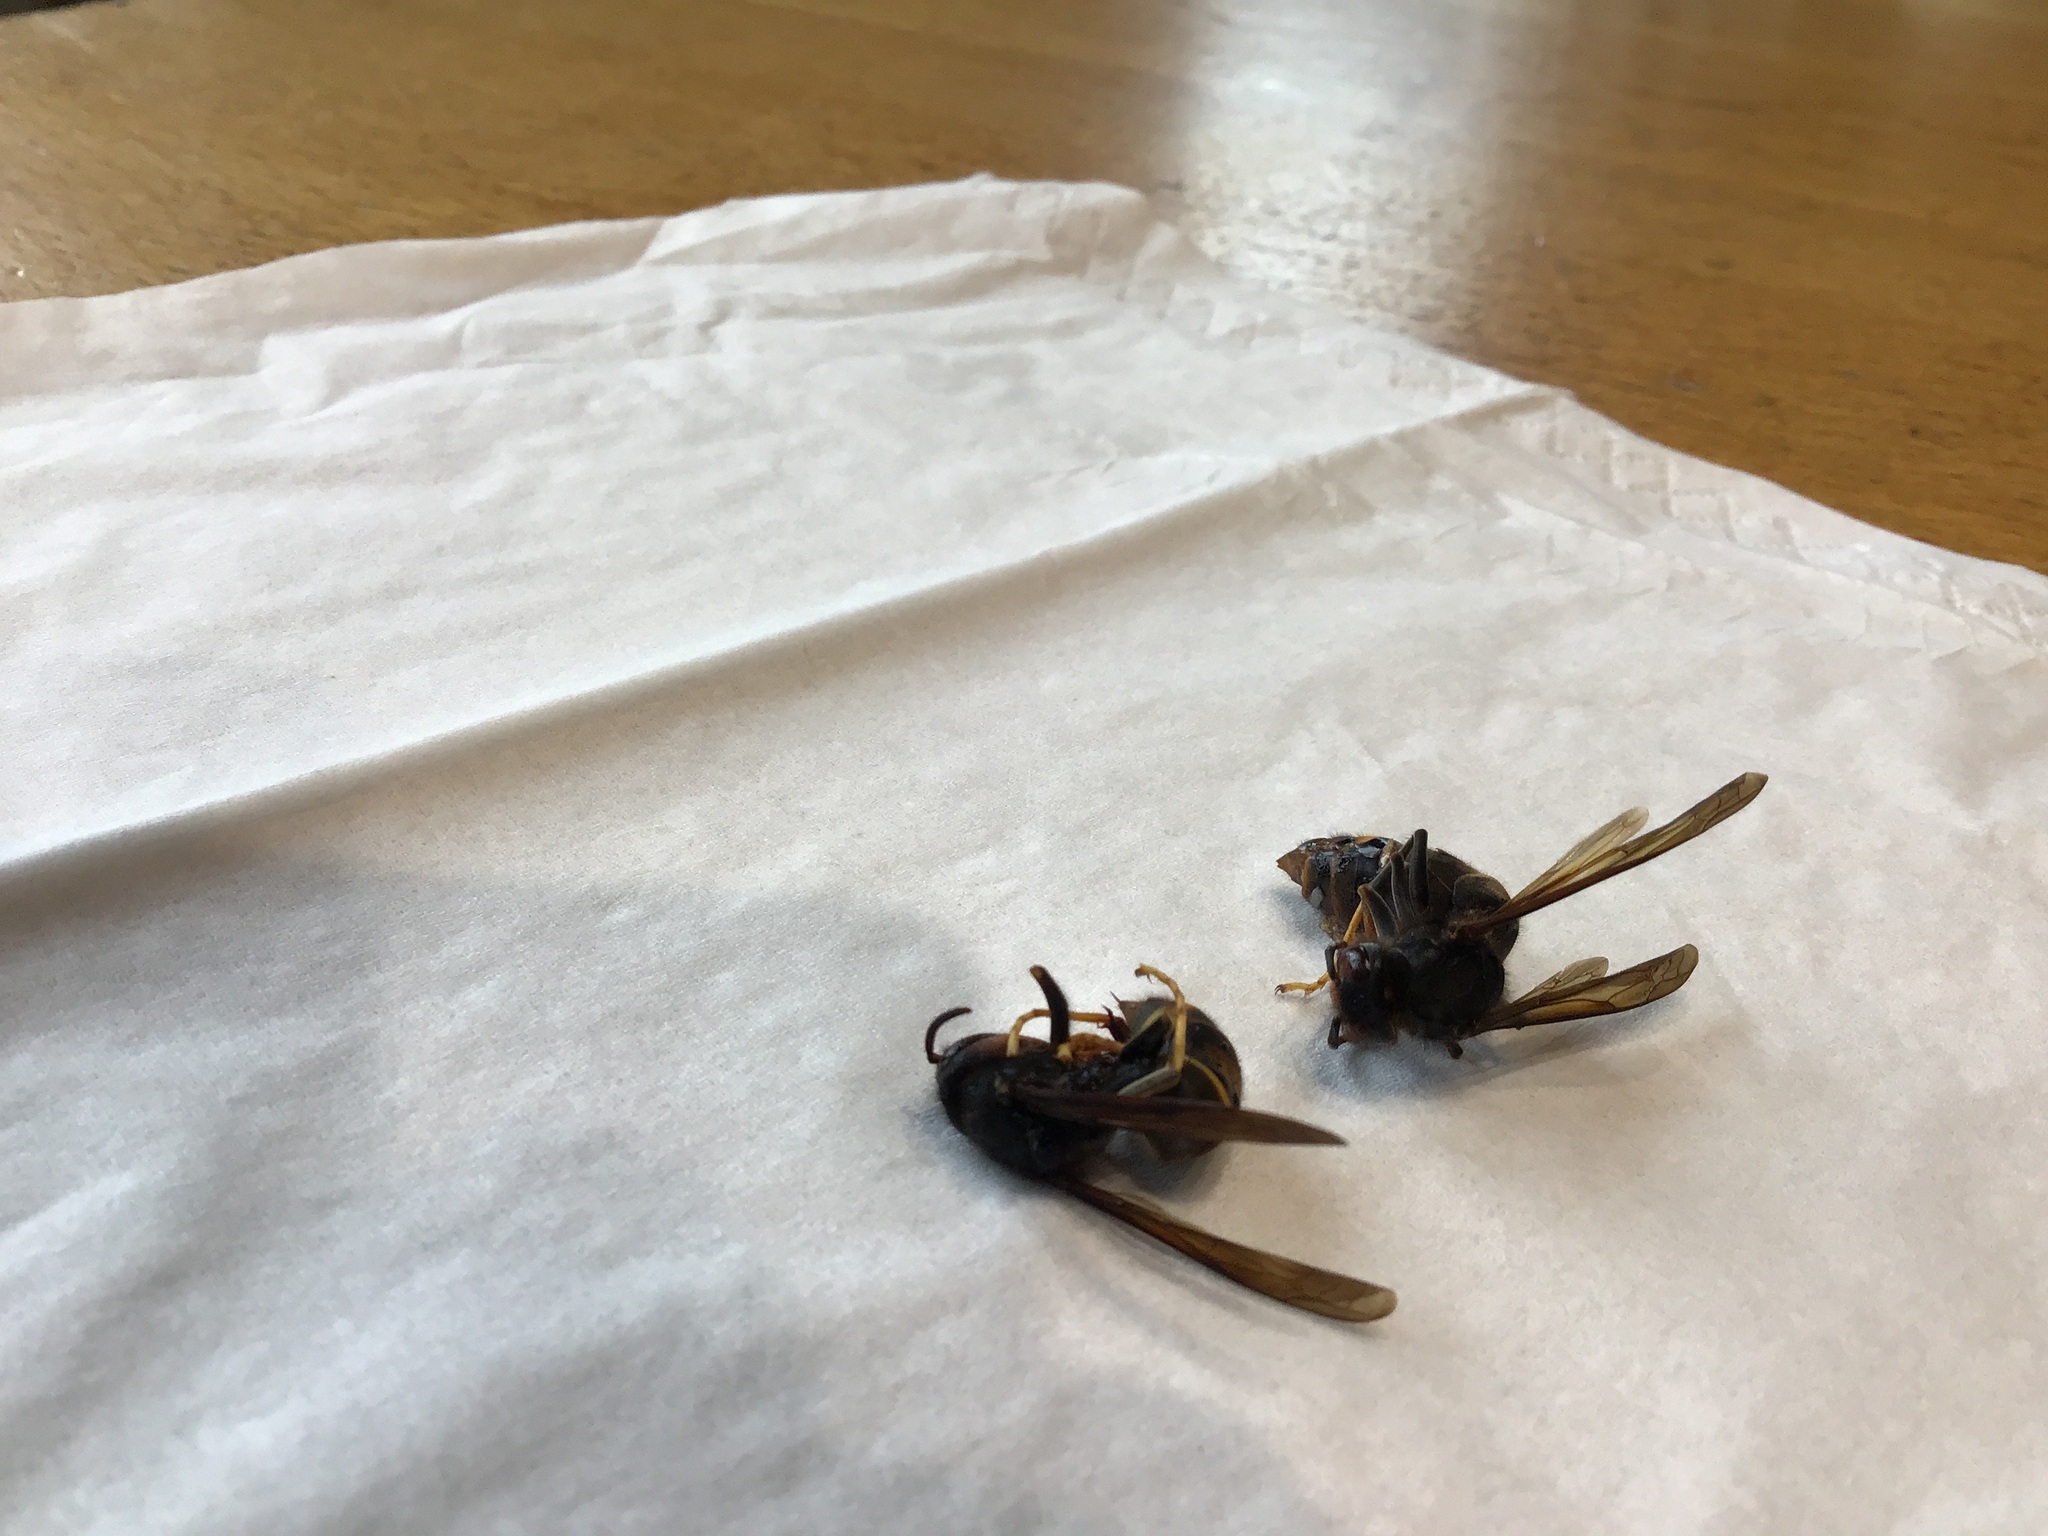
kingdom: Animalia
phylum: Arthropoda
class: Insecta
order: Hymenoptera
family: Vespidae
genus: Vespa
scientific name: Vespa velutina
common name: Asian hornet
